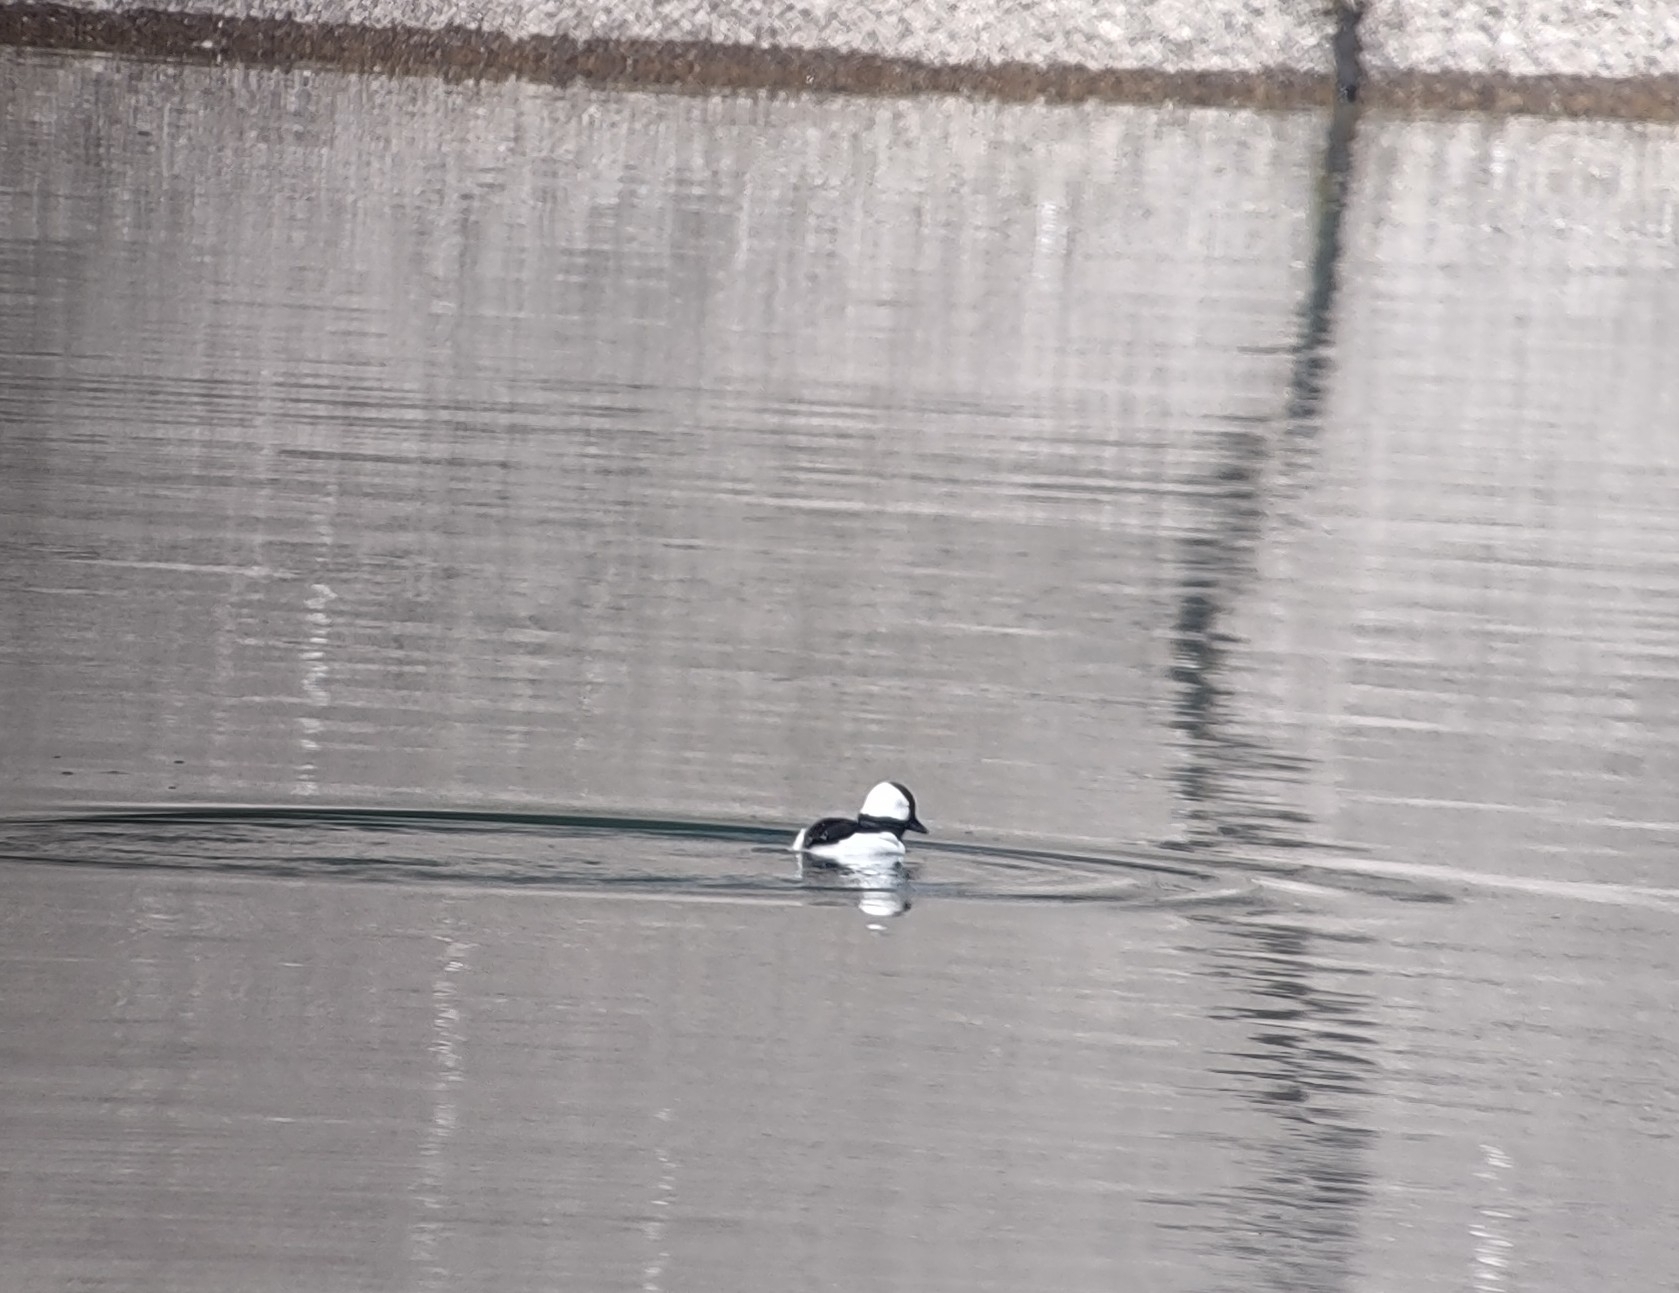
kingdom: Animalia
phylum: Chordata
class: Aves
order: Anseriformes
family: Anatidae
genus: Bucephala
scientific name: Bucephala albeola
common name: Bufflehead
